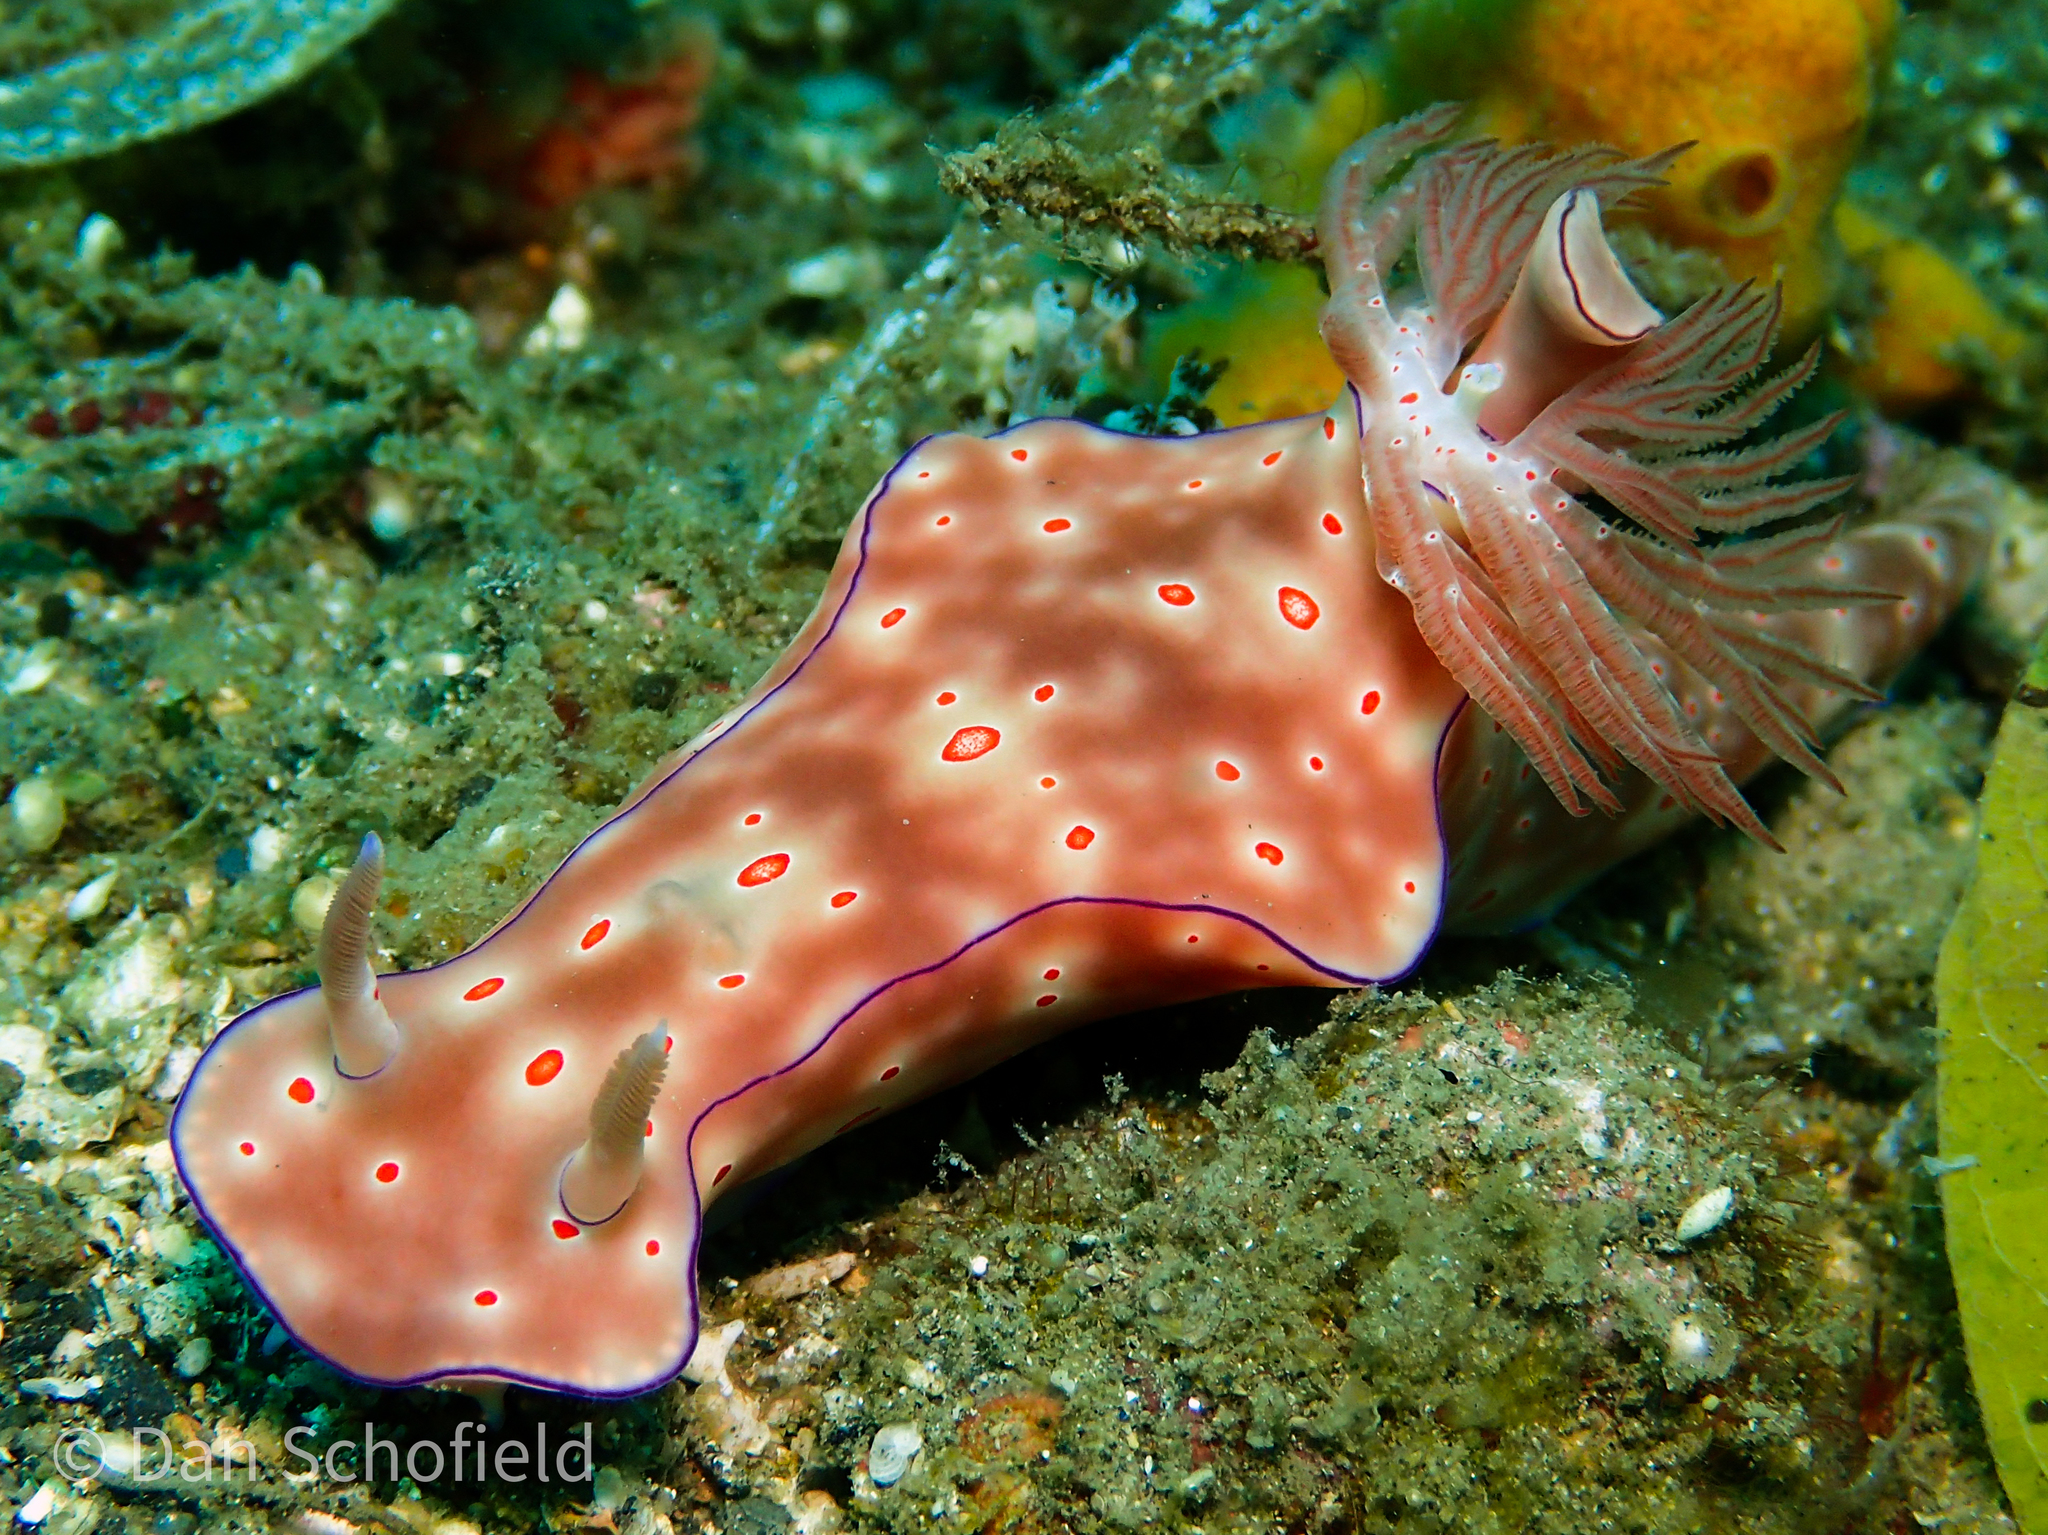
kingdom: Animalia
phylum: Mollusca
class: Gastropoda
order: Nudibranchia
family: Chromodorididae
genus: Ceratosoma
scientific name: Ceratosoma trilobatum
